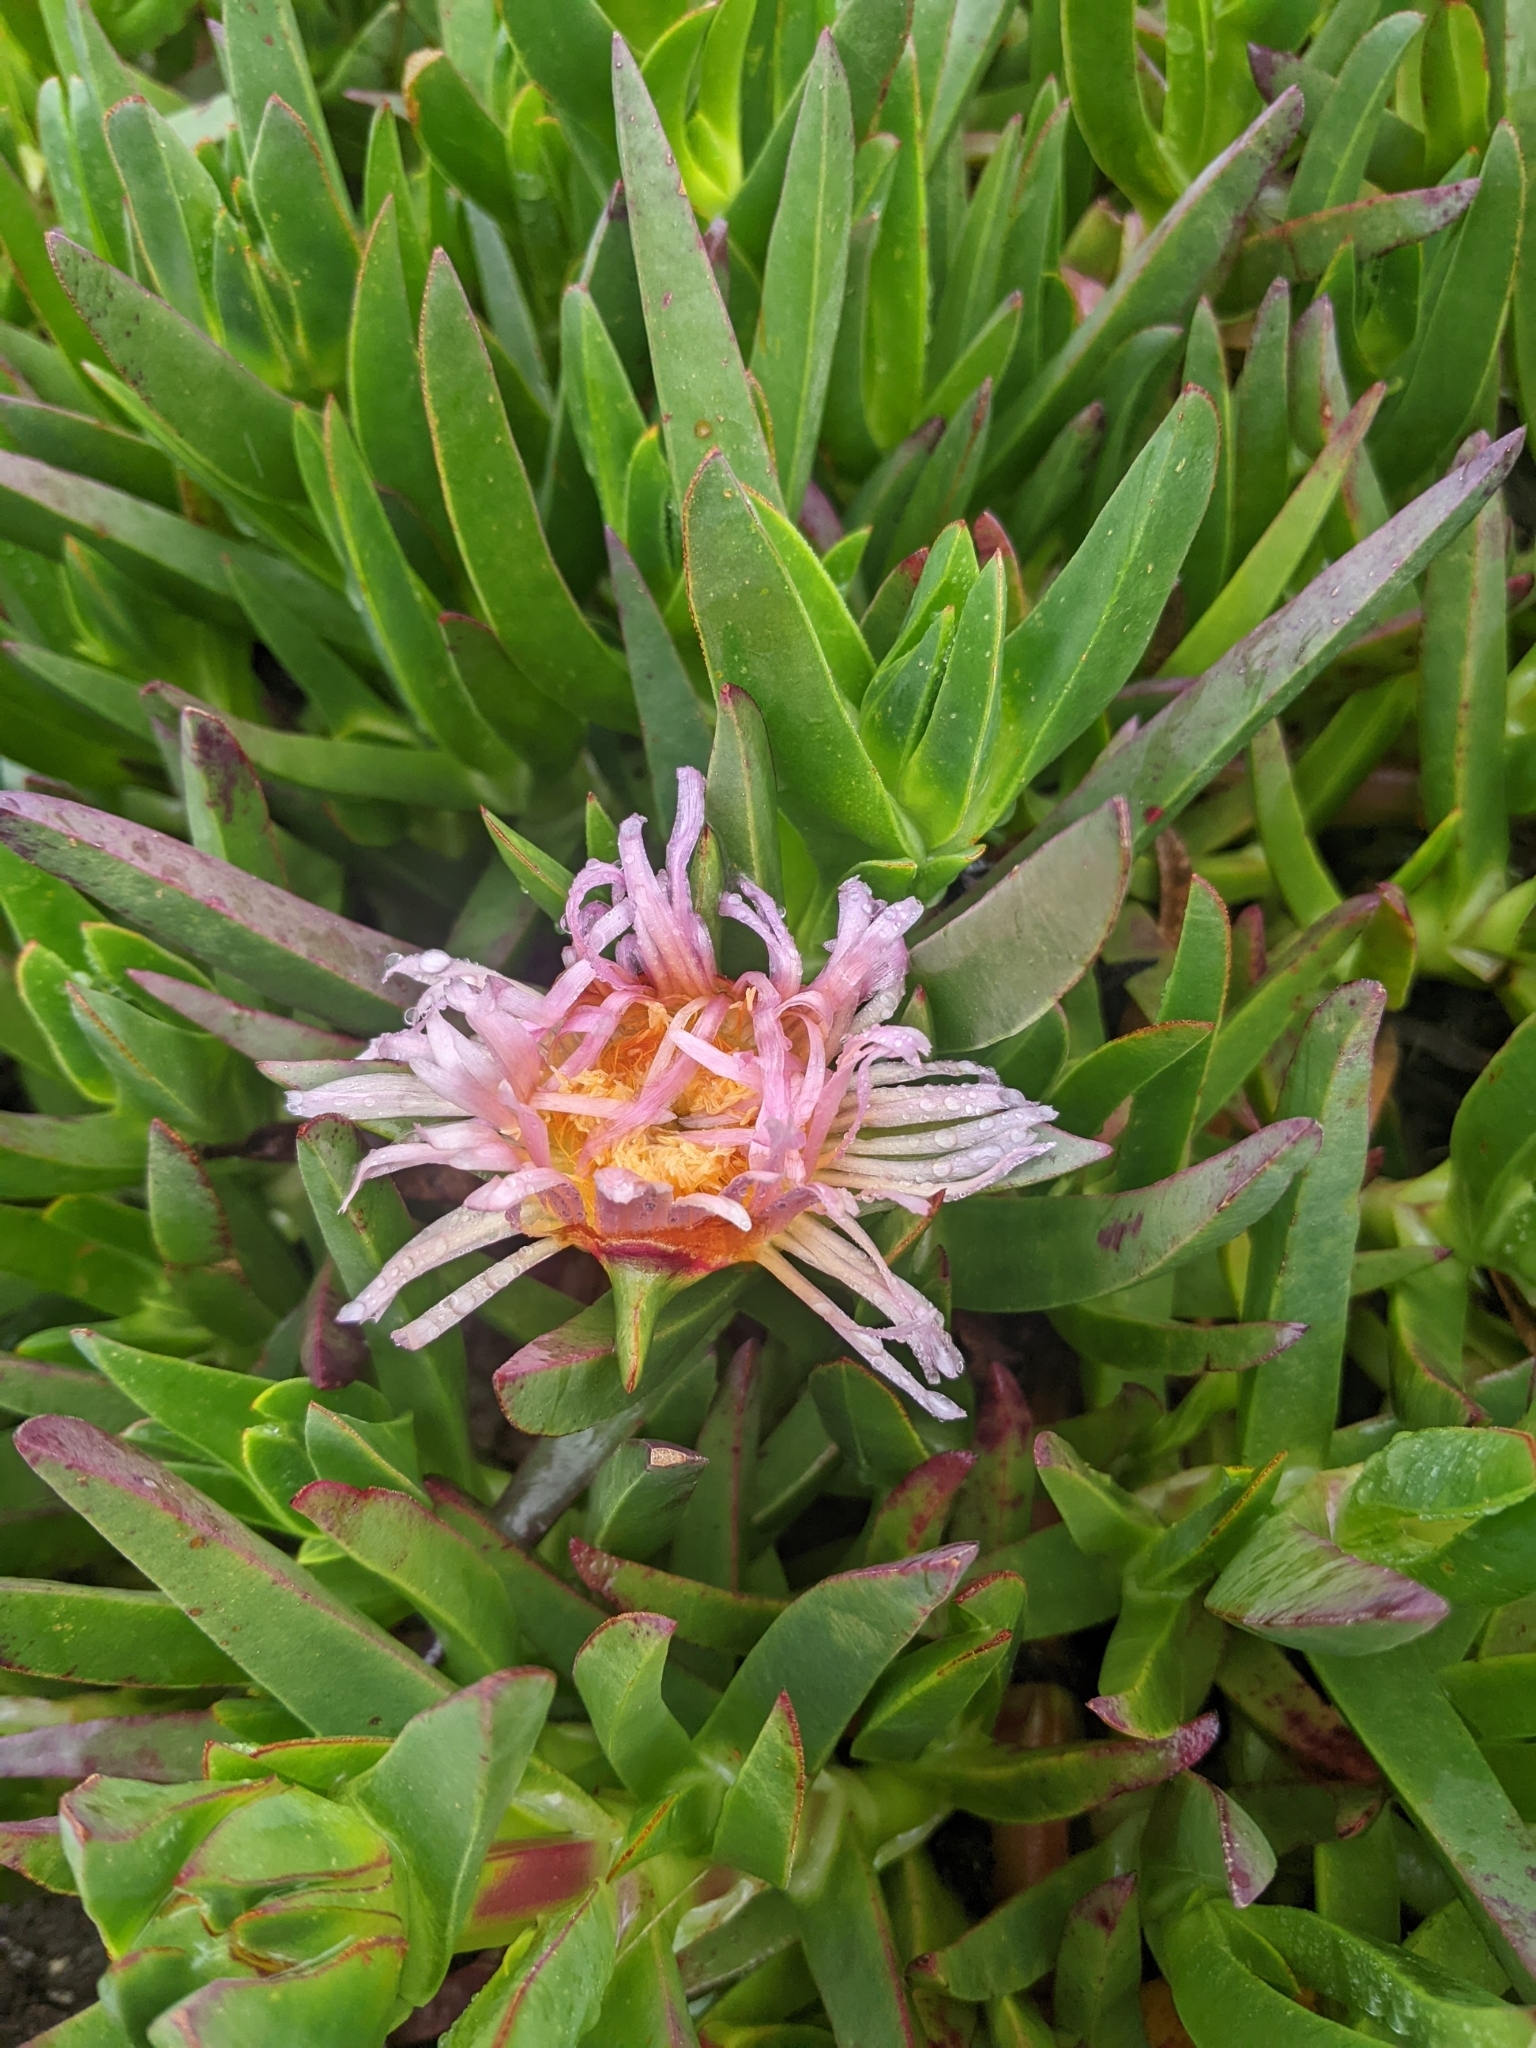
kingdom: Plantae
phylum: Tracheophyta
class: Magnoliopsida
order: Caryophyllales
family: Aizoaceae
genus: Carpobrotus
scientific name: Carpobrotus edulis
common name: Hottentot-fig
